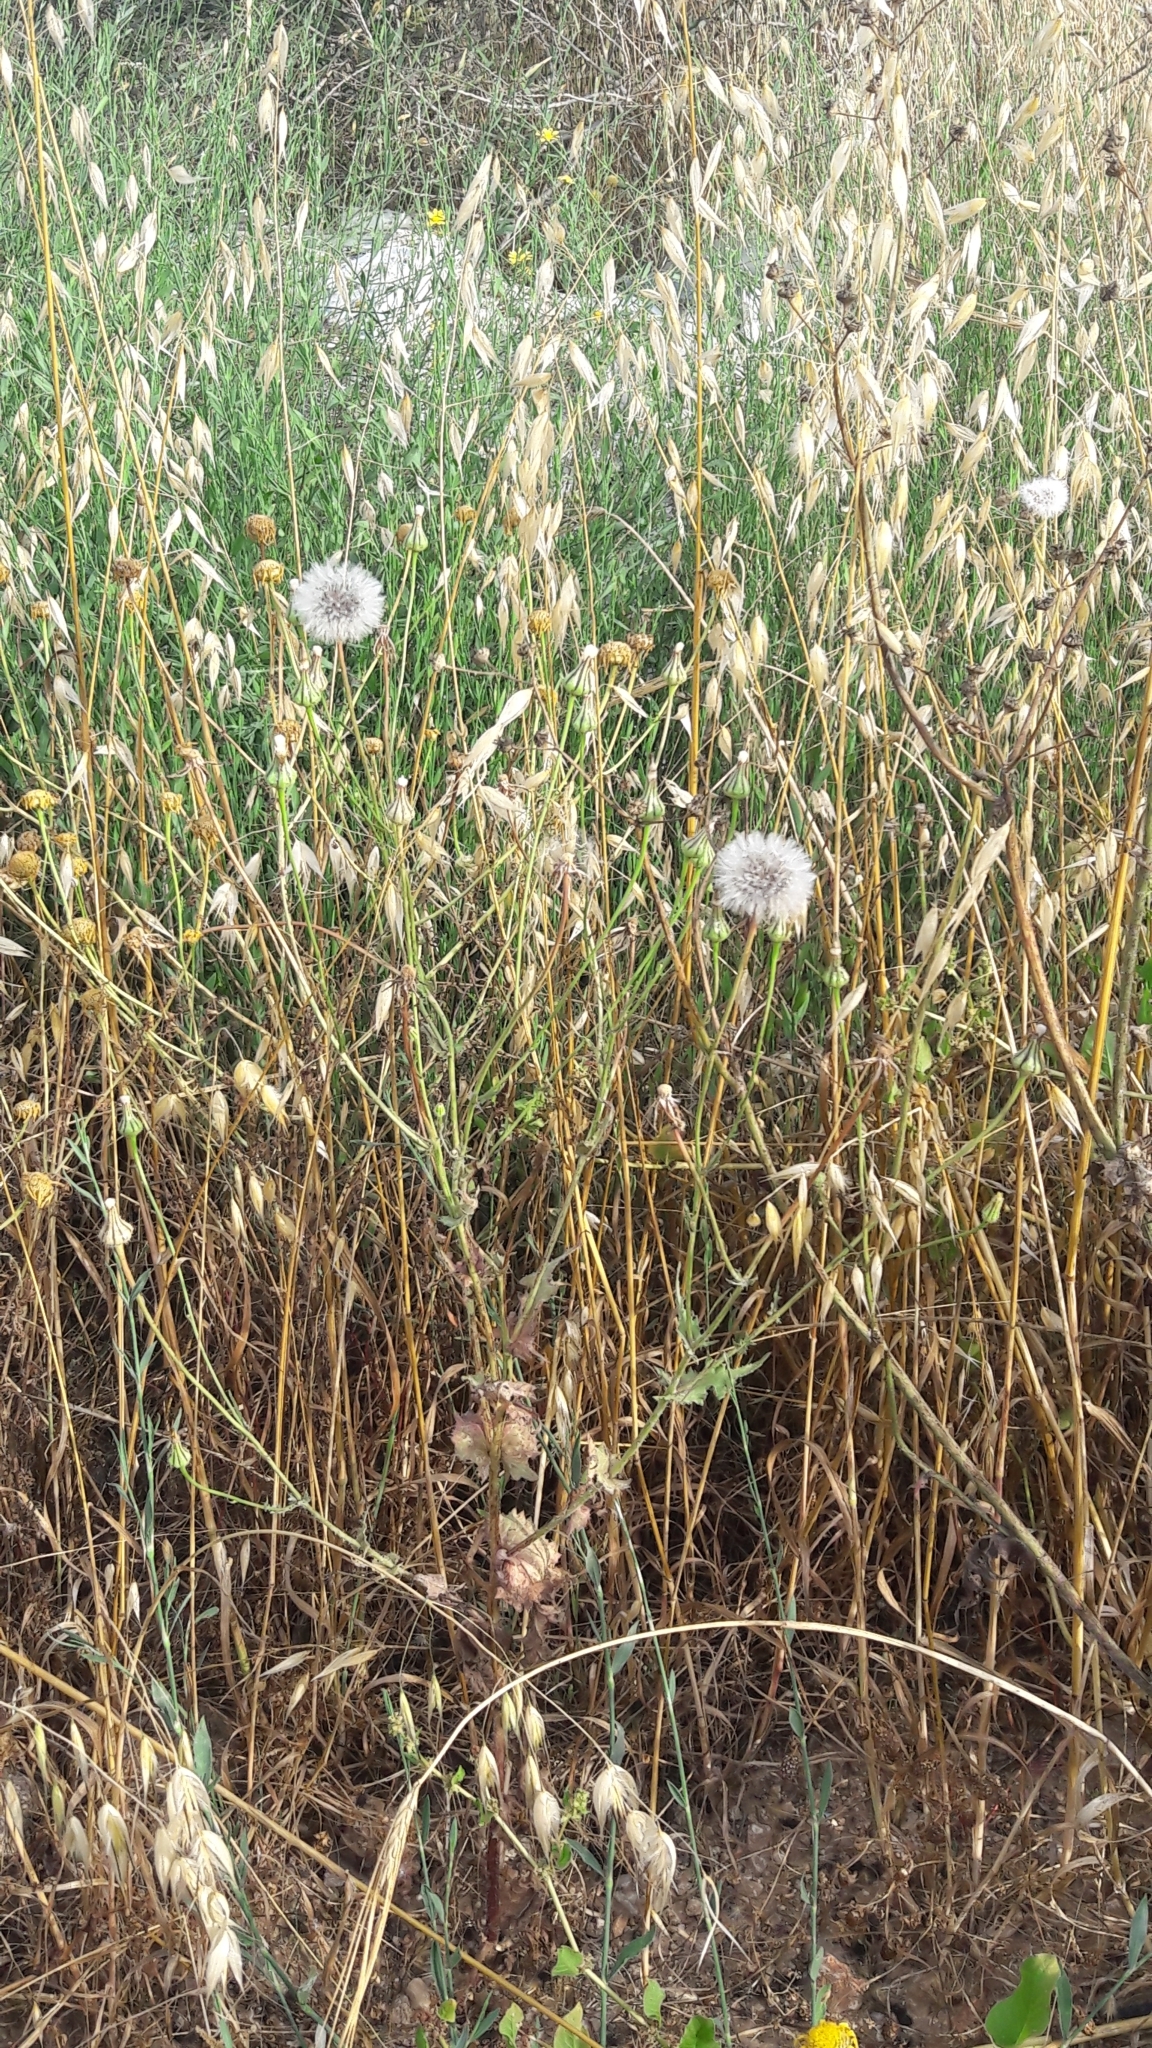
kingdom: Plantae
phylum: Tracheophyta
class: Magnoliopsida
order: Asterales
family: Asteraceae
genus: Urospermum
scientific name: Urospermum picroides
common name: False hawkbit
